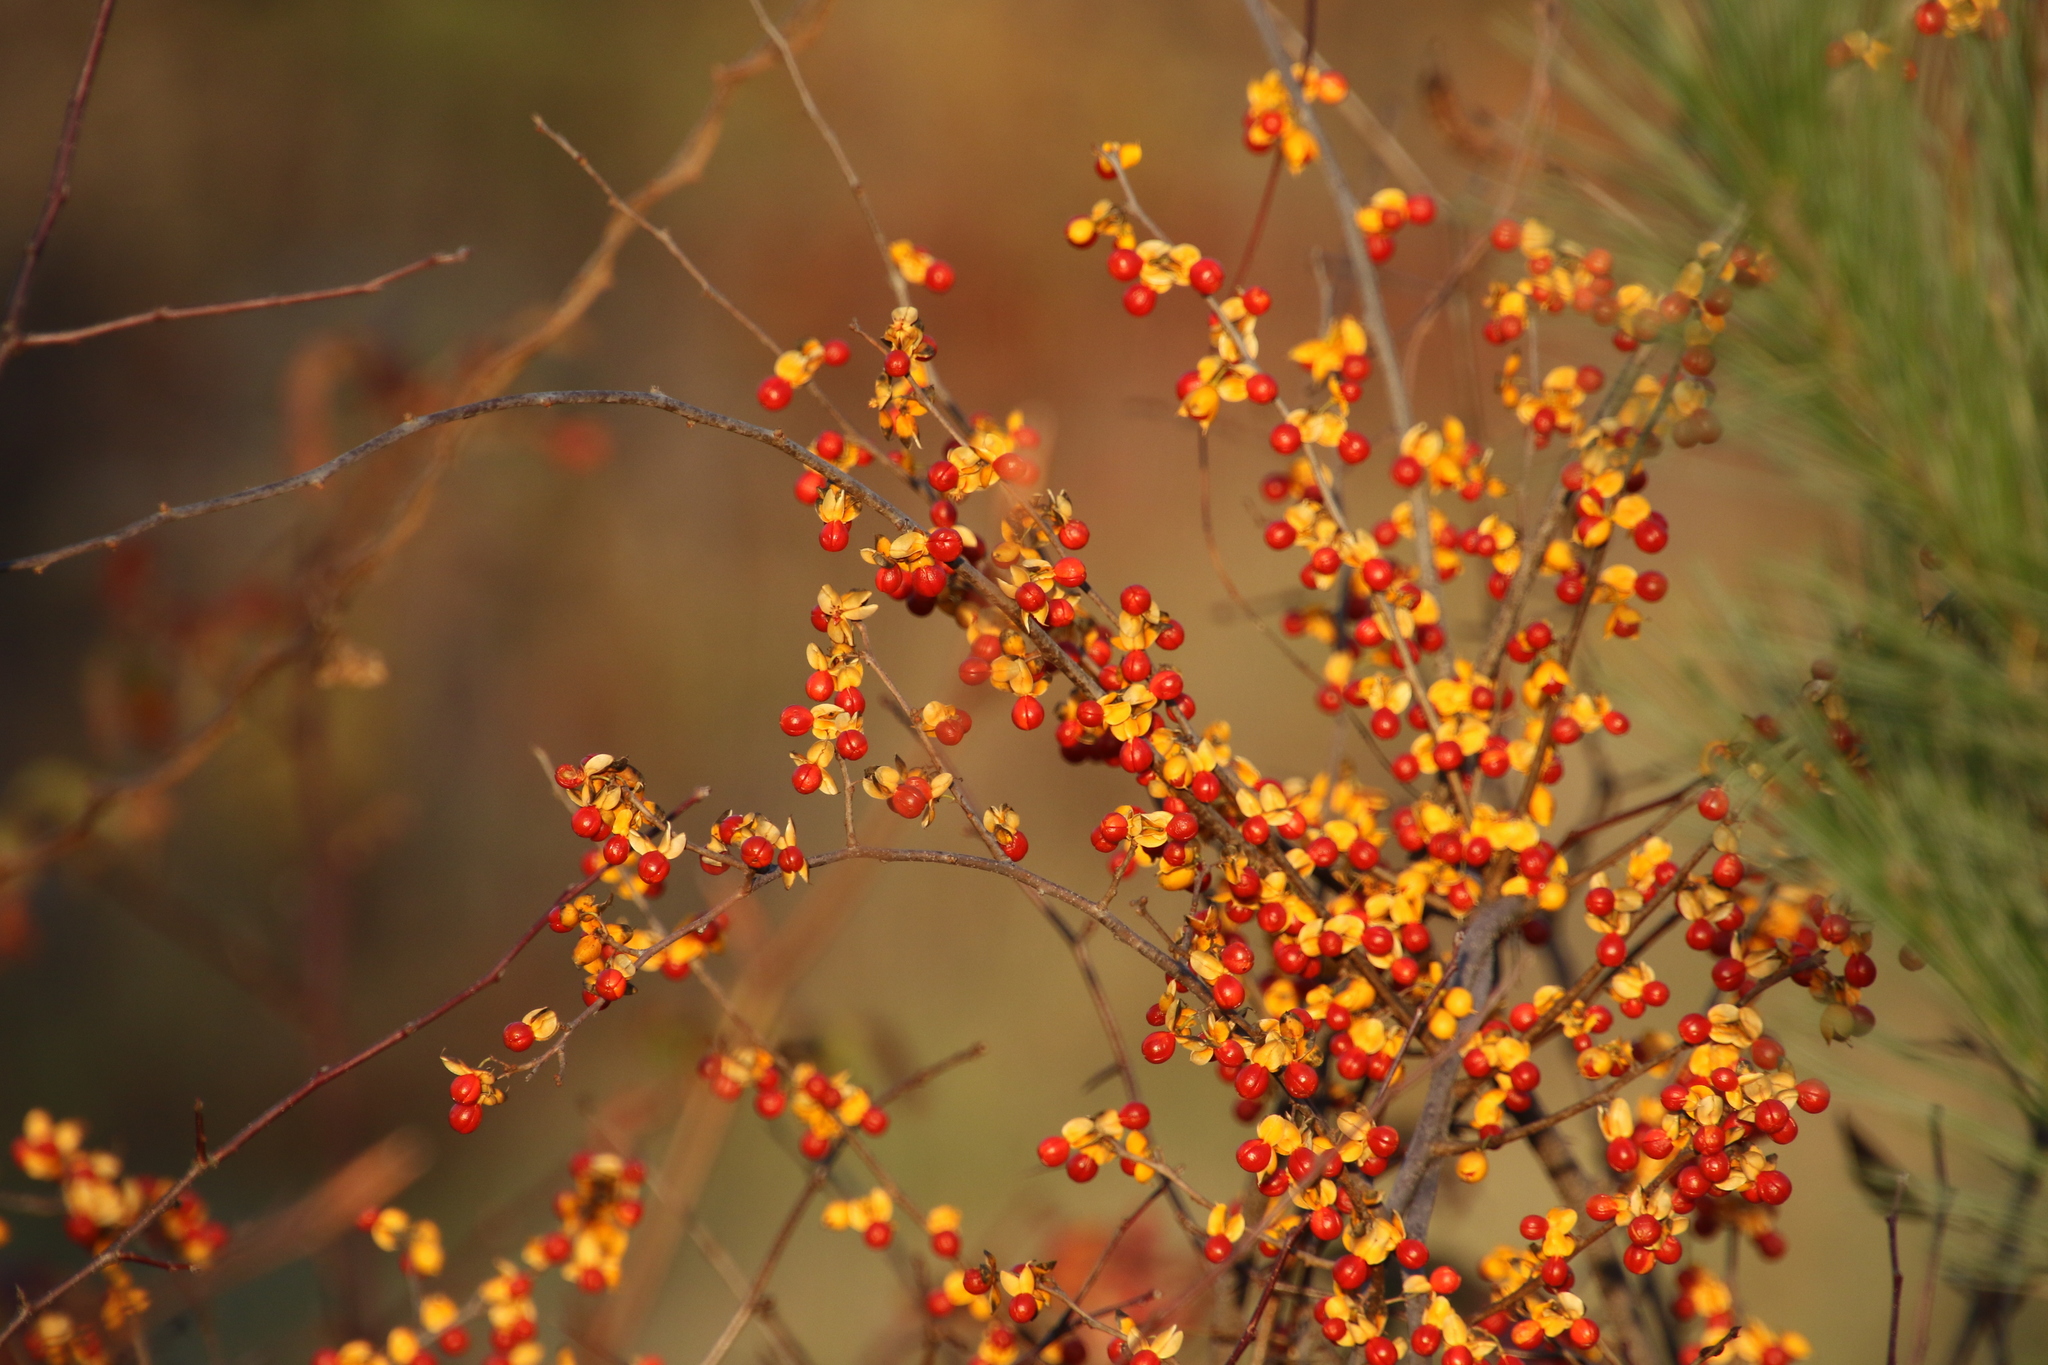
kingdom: Plantae
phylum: Tracheophyta
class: Magnoliopsida
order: Celastrales
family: Celastraceae
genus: Celastrus
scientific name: Celastrus orbiculatus
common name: Oriental bittersweet
